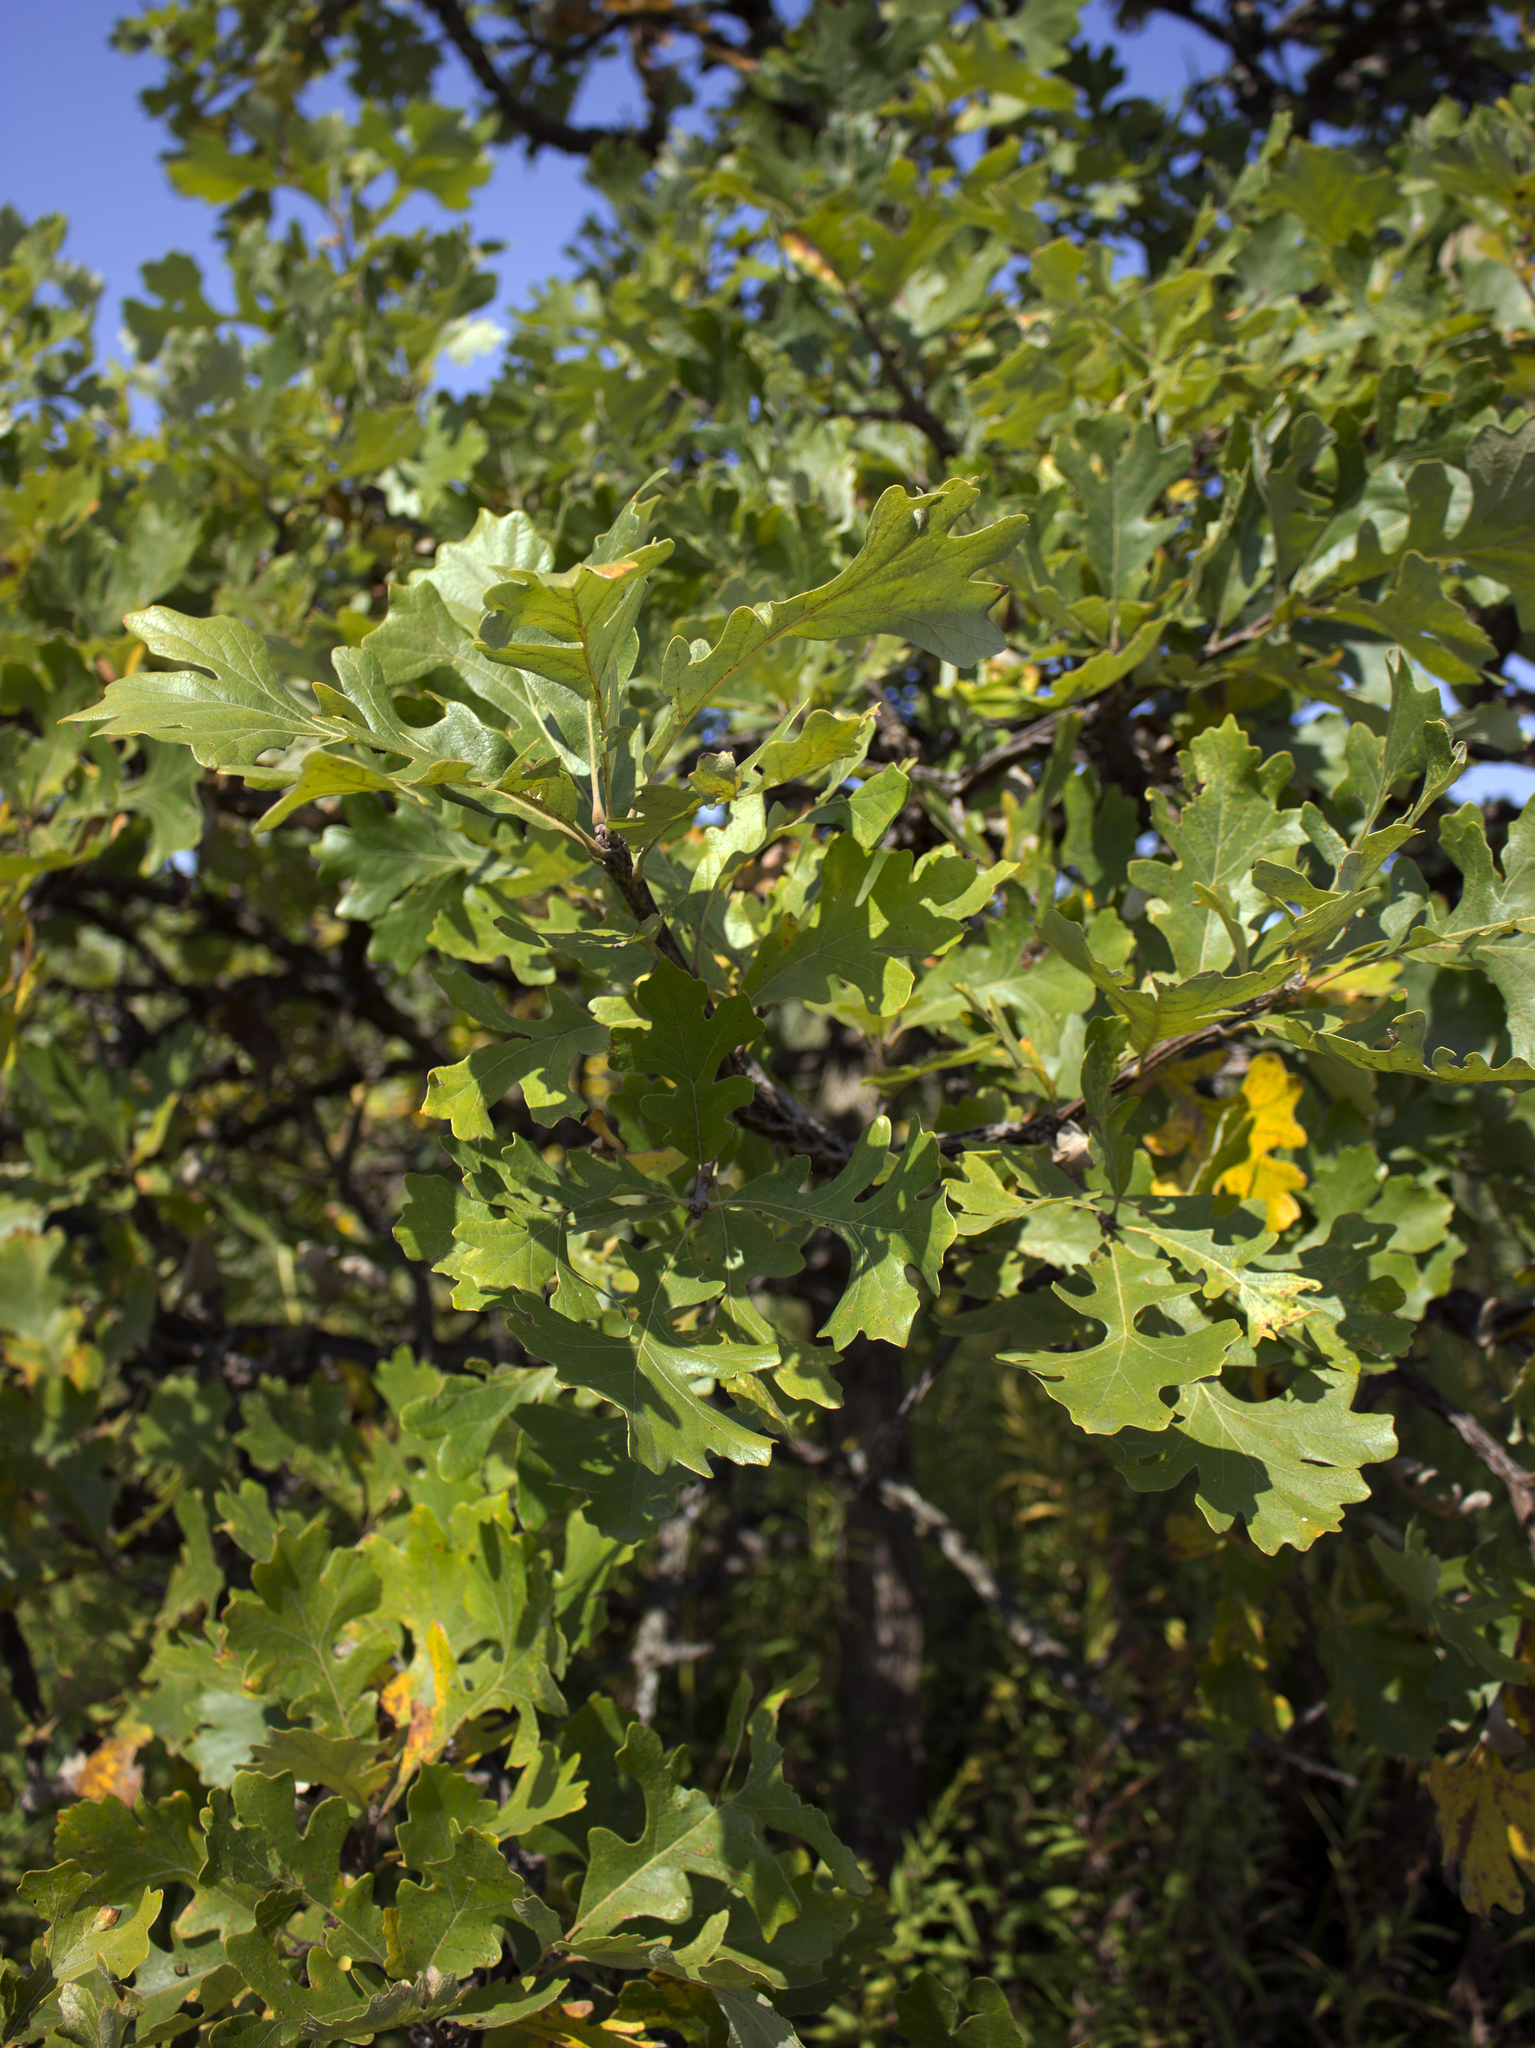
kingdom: Plantae
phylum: Tracheophyta
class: Magnoliopsida
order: Fagales
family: Fagaceae
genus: Quercus
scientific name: Quercus macrocarpa
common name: Bur oak
